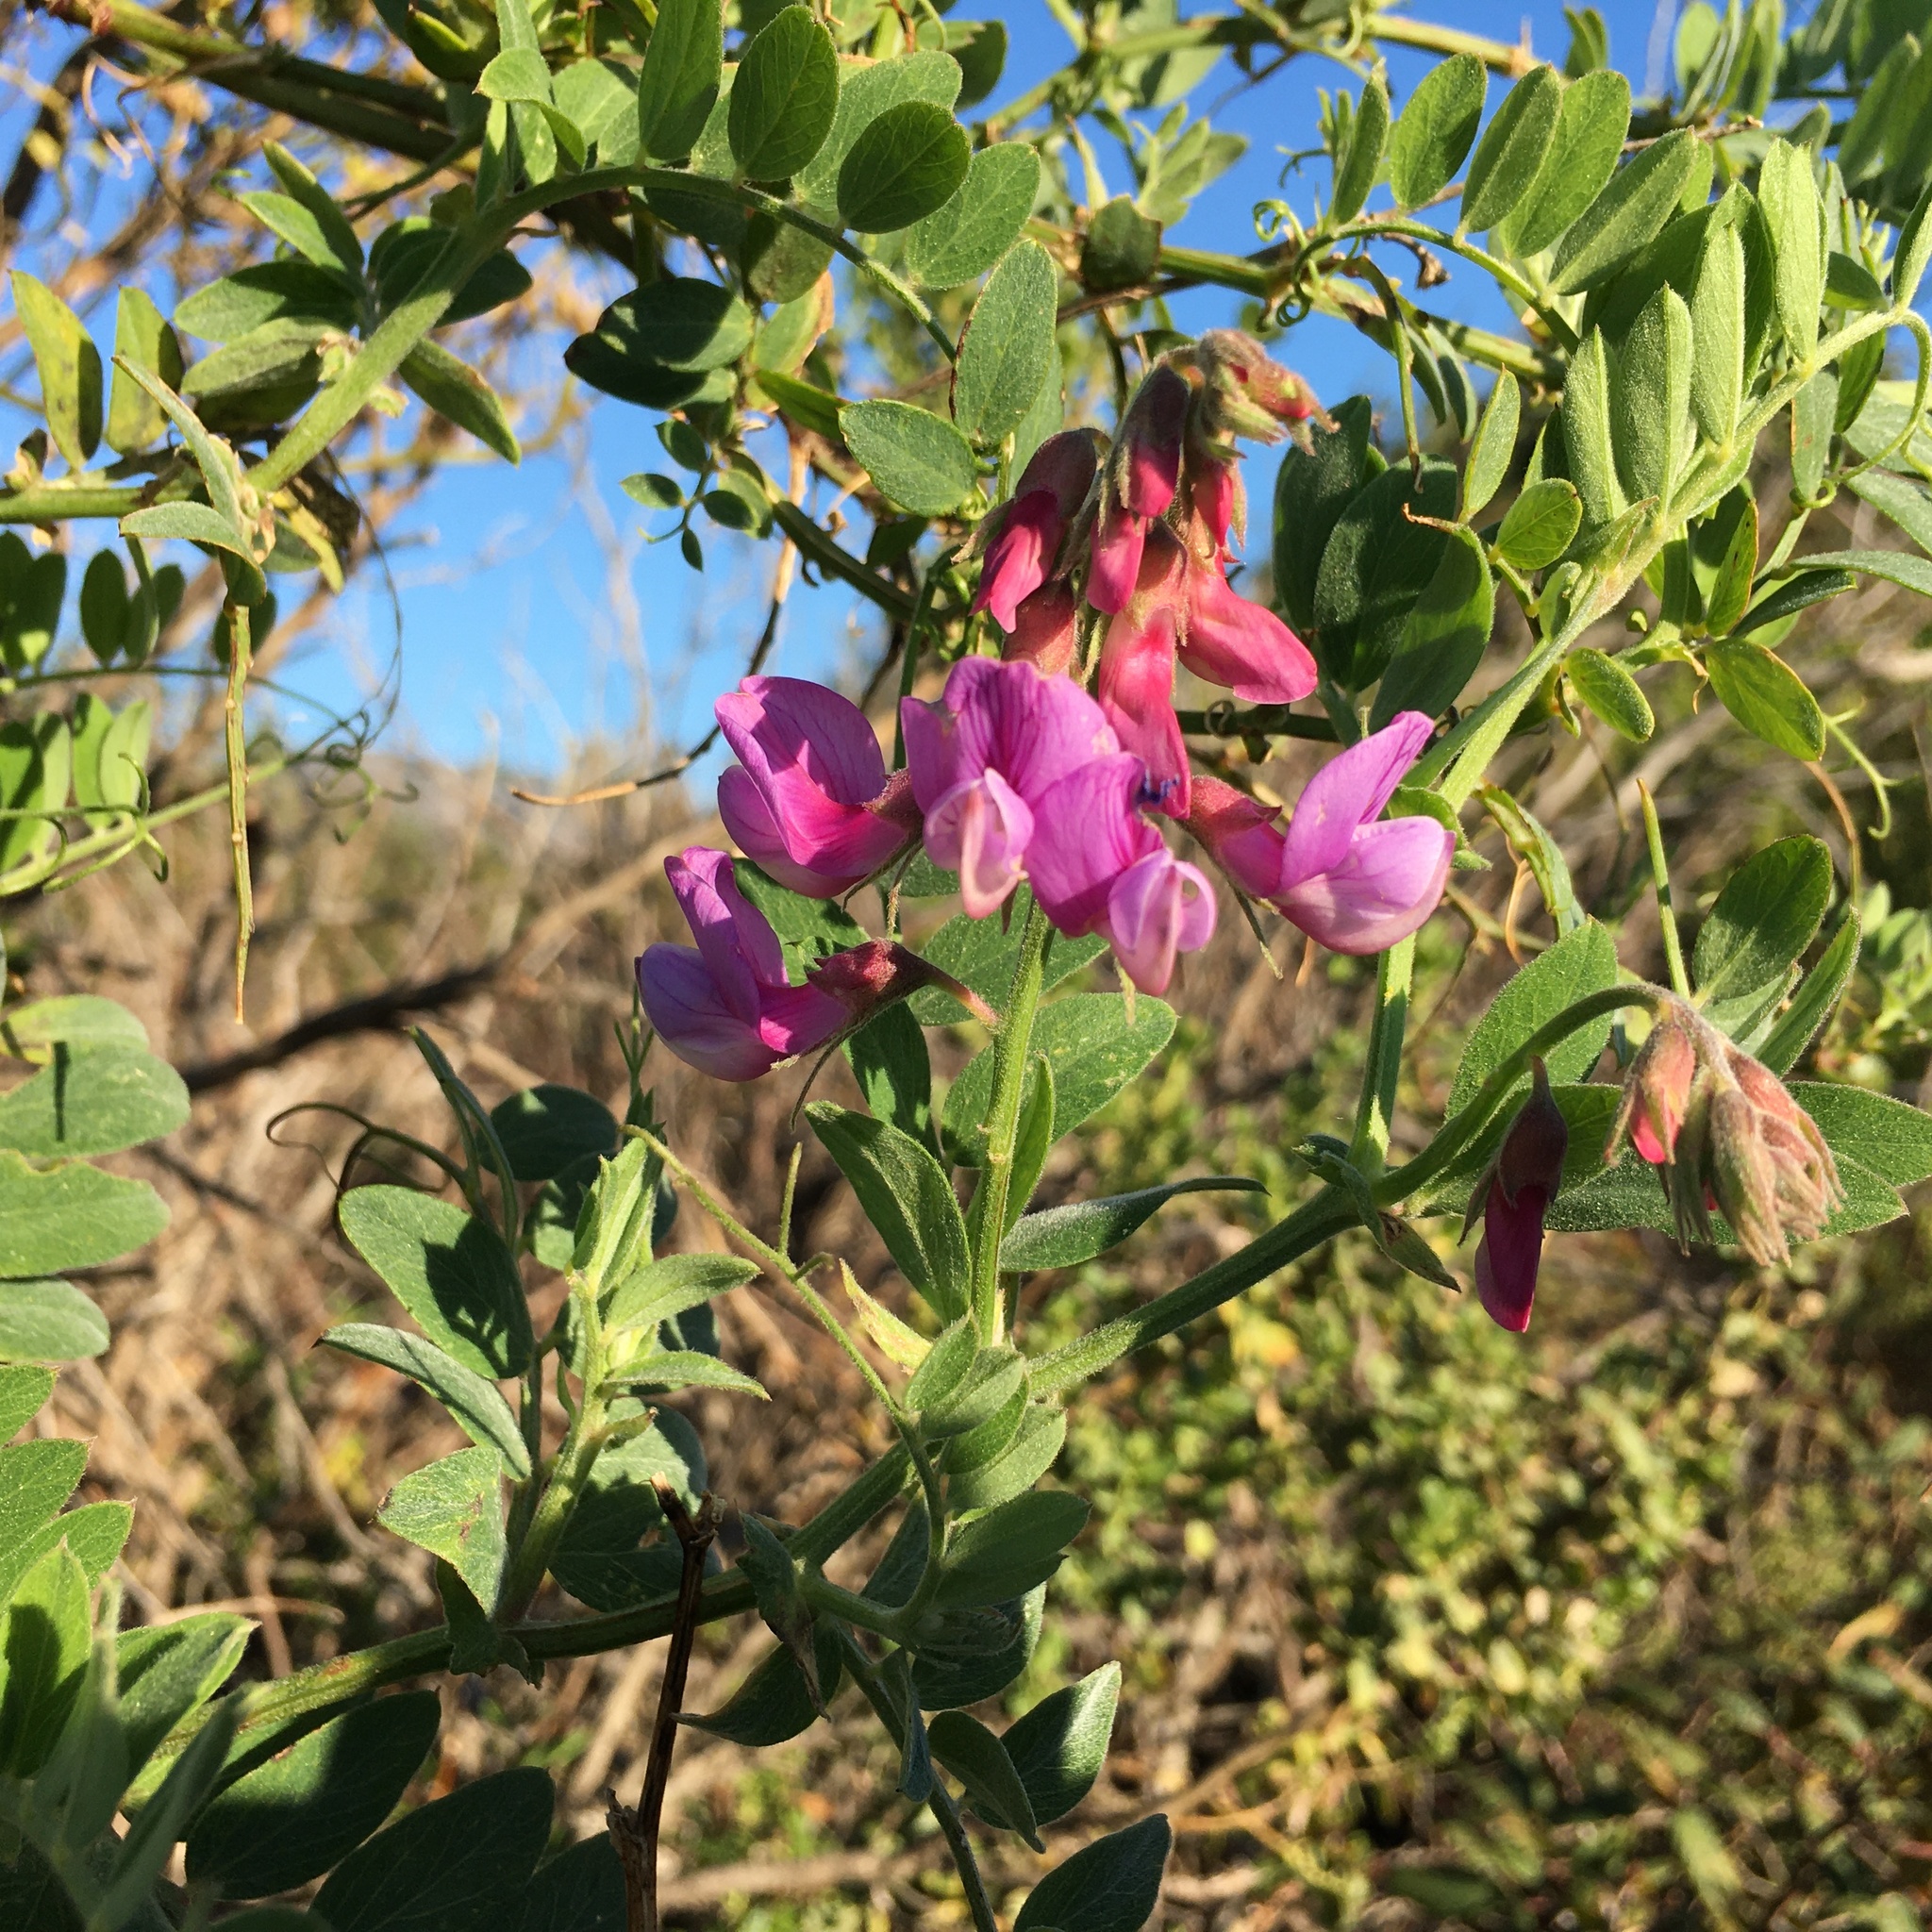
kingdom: Plantae
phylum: Tracheophyta
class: Magnoliopsida
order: Fabales
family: Fabaceae
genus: Lathyrus
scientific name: Lathyrus vestitus
